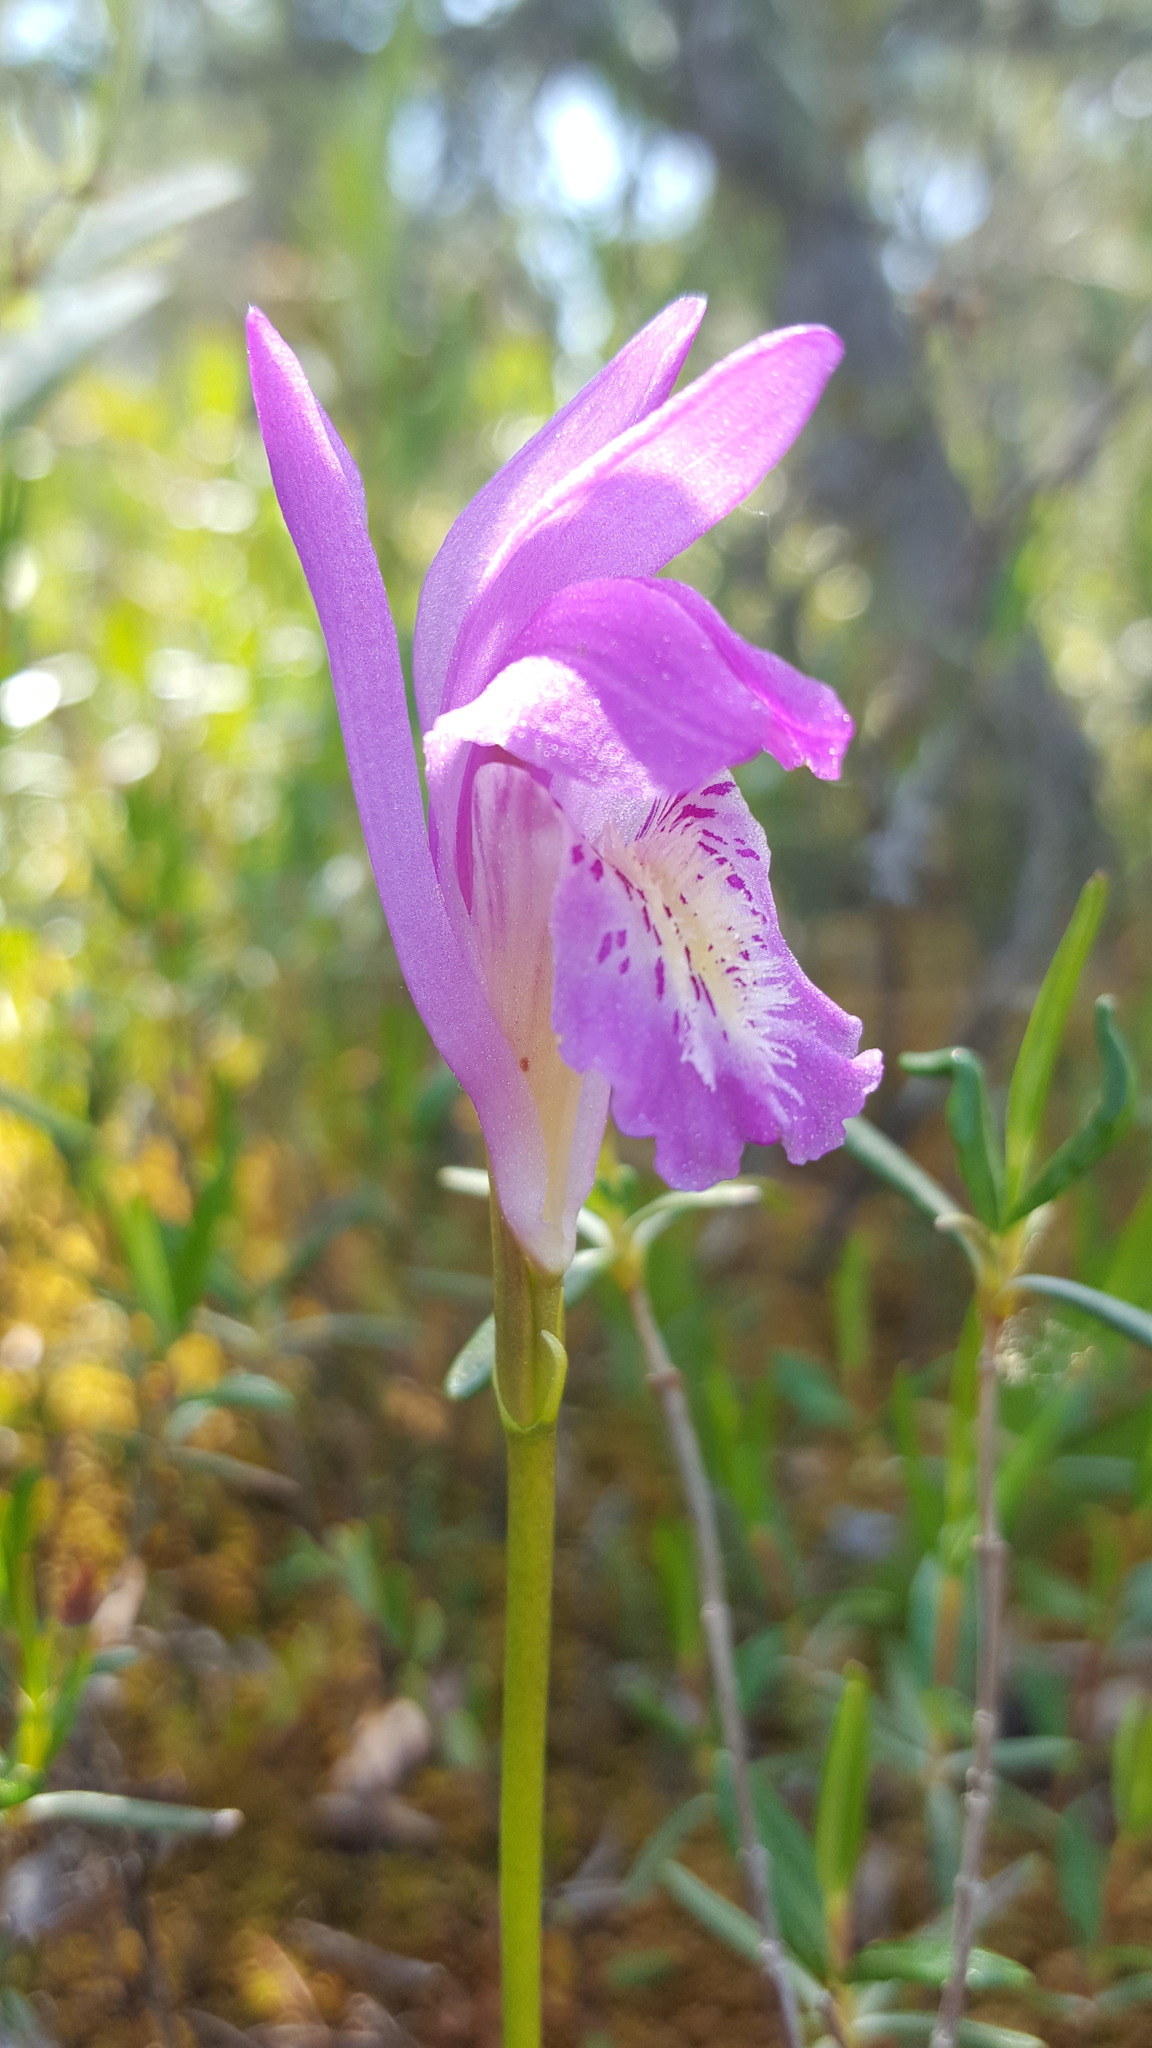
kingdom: Plantae
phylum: Tracheophyta
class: Liliopsida
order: Asparagales
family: Orchidaceae
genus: Arethusa
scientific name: Arethusa bulbosa
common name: Arethusa
